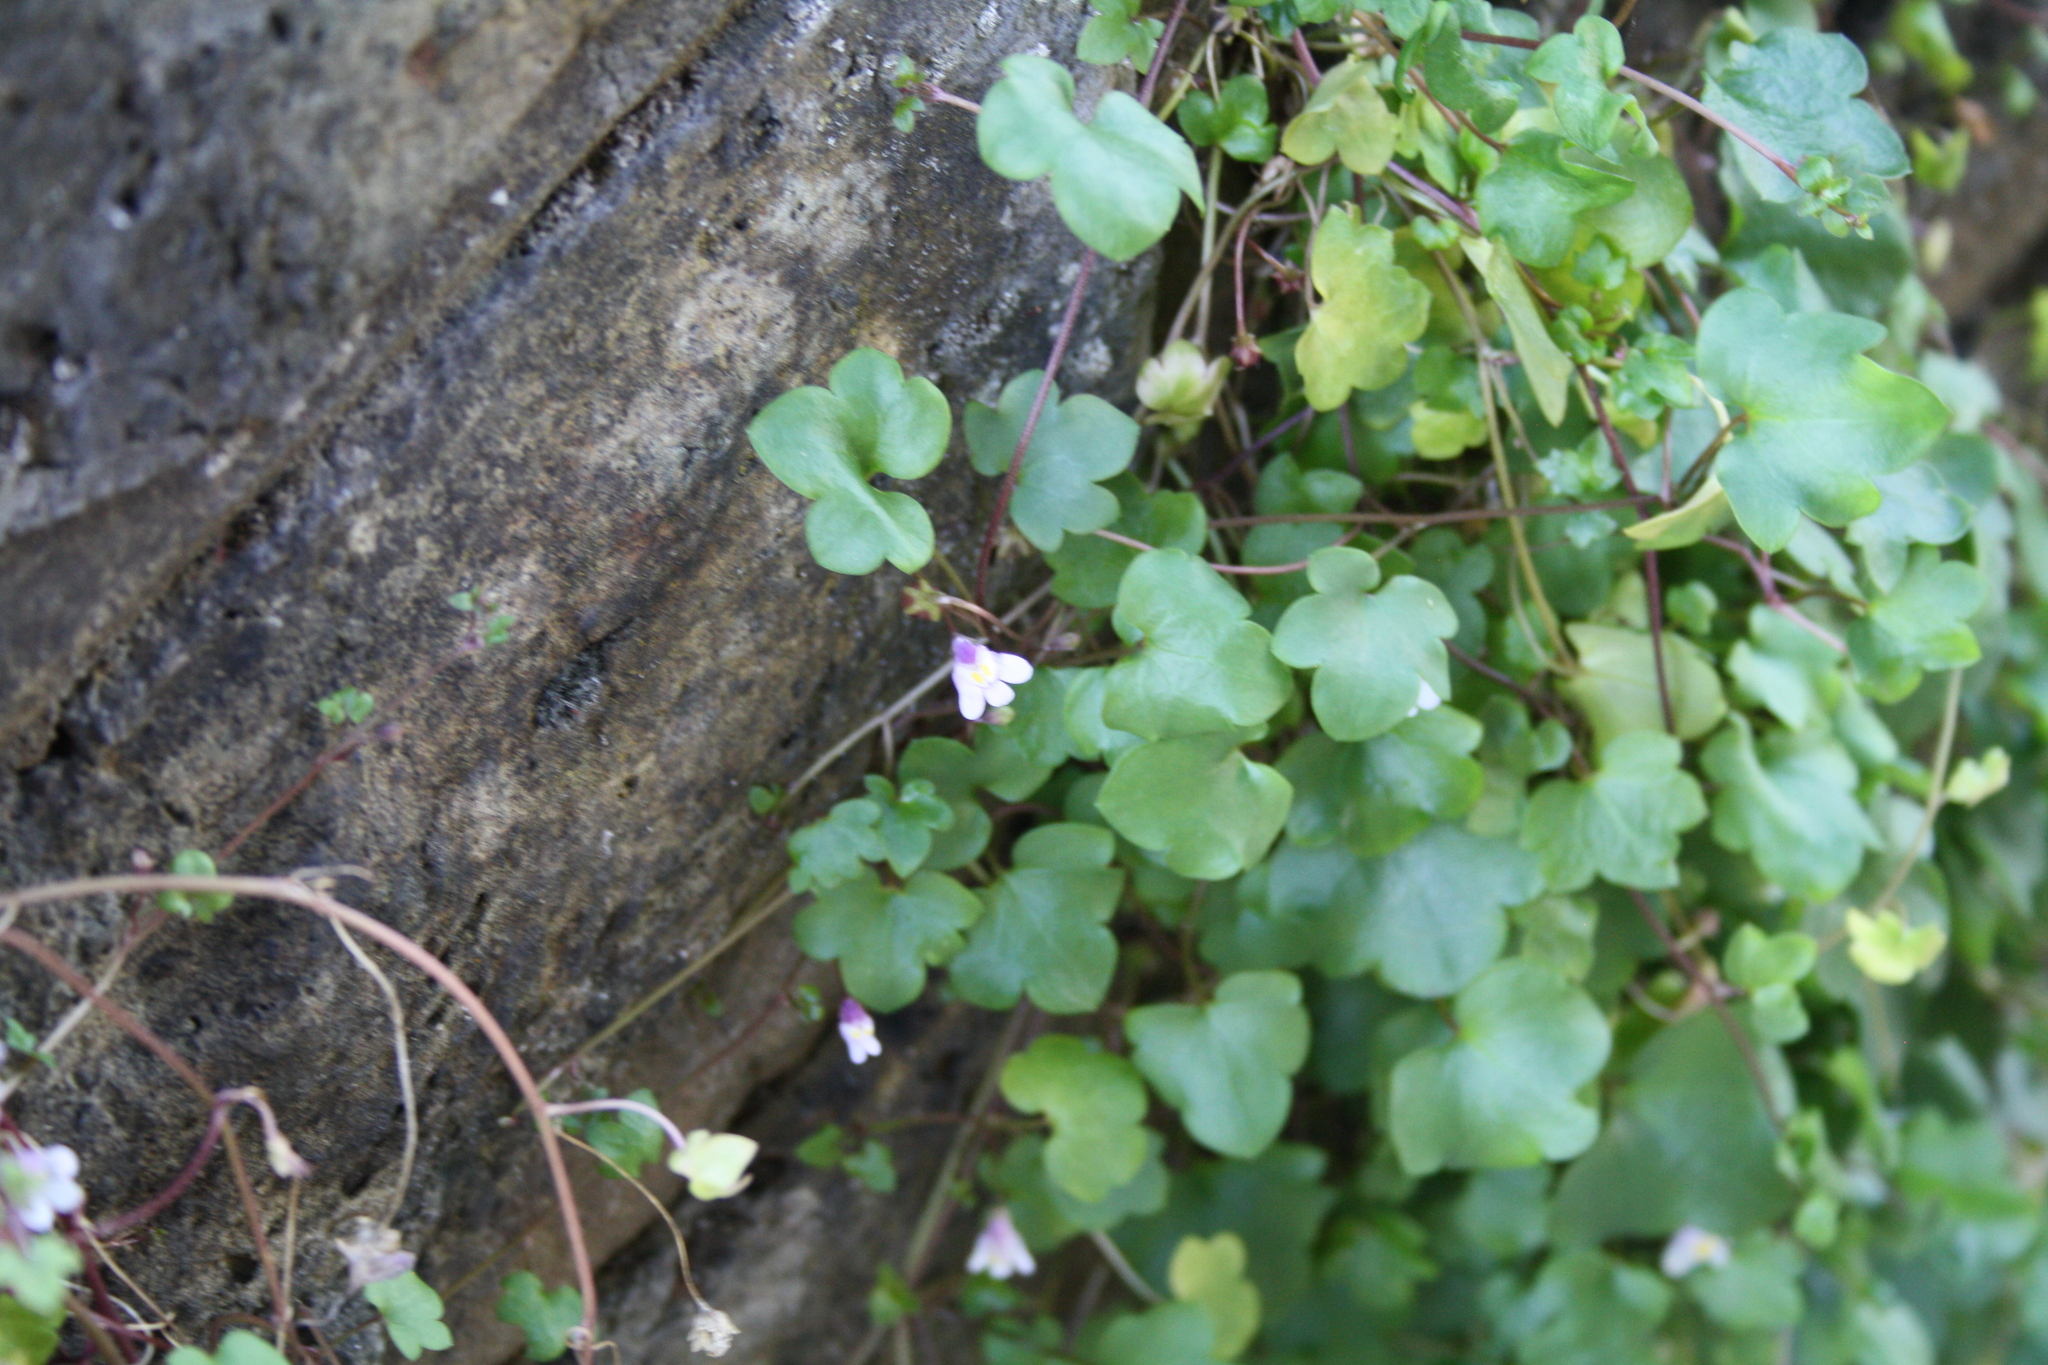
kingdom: Plantae
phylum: Tracheophyta
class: Magnoliopsida
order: Lamiales
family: Plantaginaceae
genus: Cymbalaria
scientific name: Cymbalaria muralis
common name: Ivy-leaved toadflax
